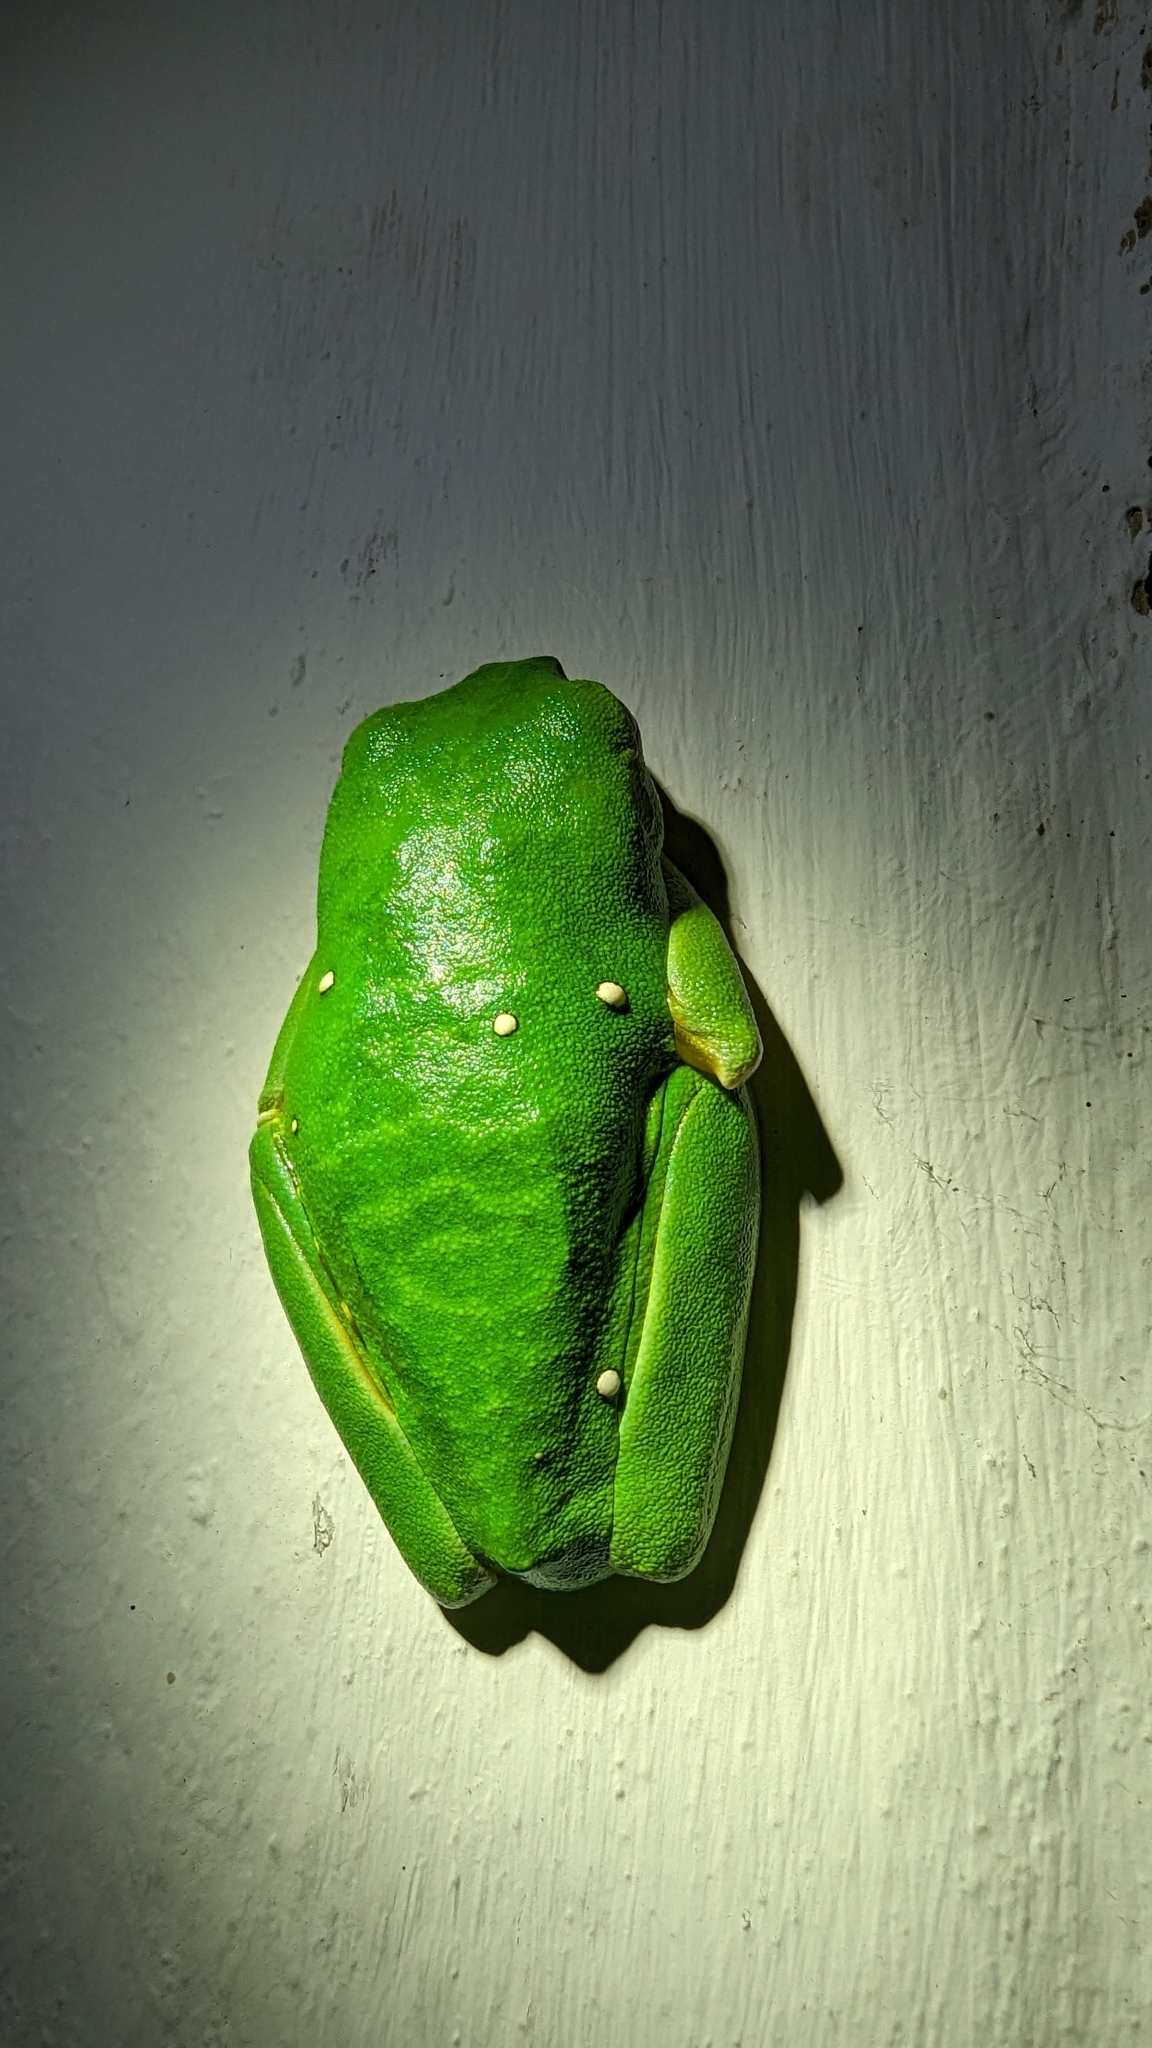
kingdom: Animalia
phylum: Chordata
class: Amphibia
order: Anura
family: Phyllomedusidae
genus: Agalychnis
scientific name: Agalychnis callidryas
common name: Red-eyed treefrog
